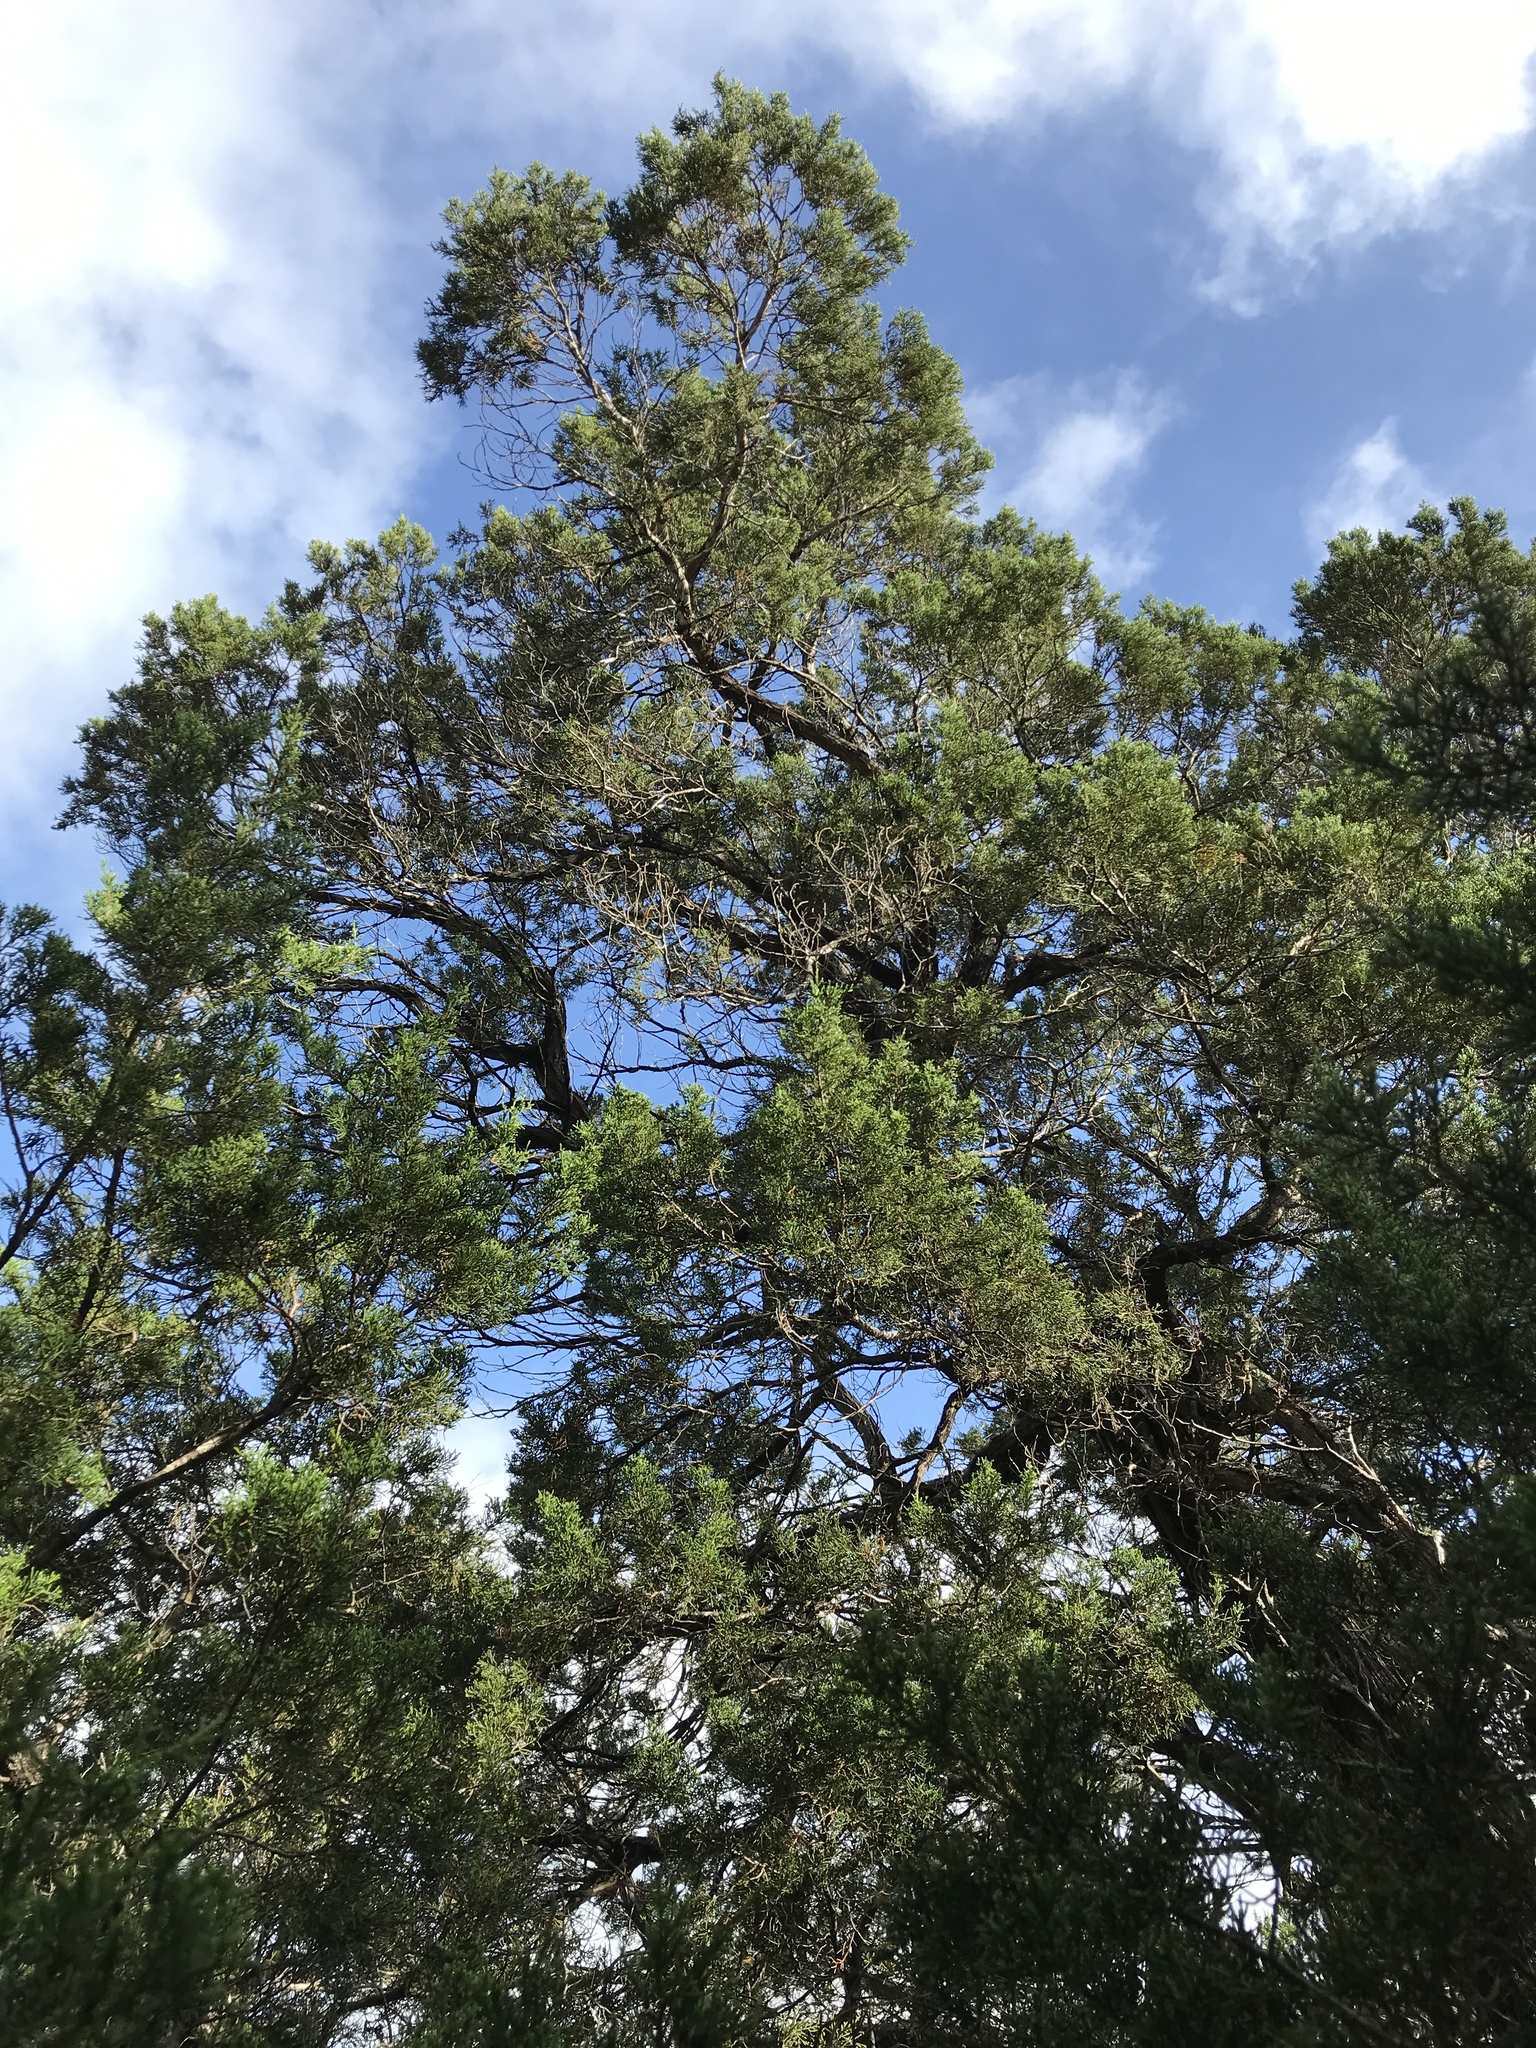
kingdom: Plantae
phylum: Tracheophyta
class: Pinopsida
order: Pinales
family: Cupressaceae
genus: Juniperus
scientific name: Juniperus ashei
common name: Mexican juniper
